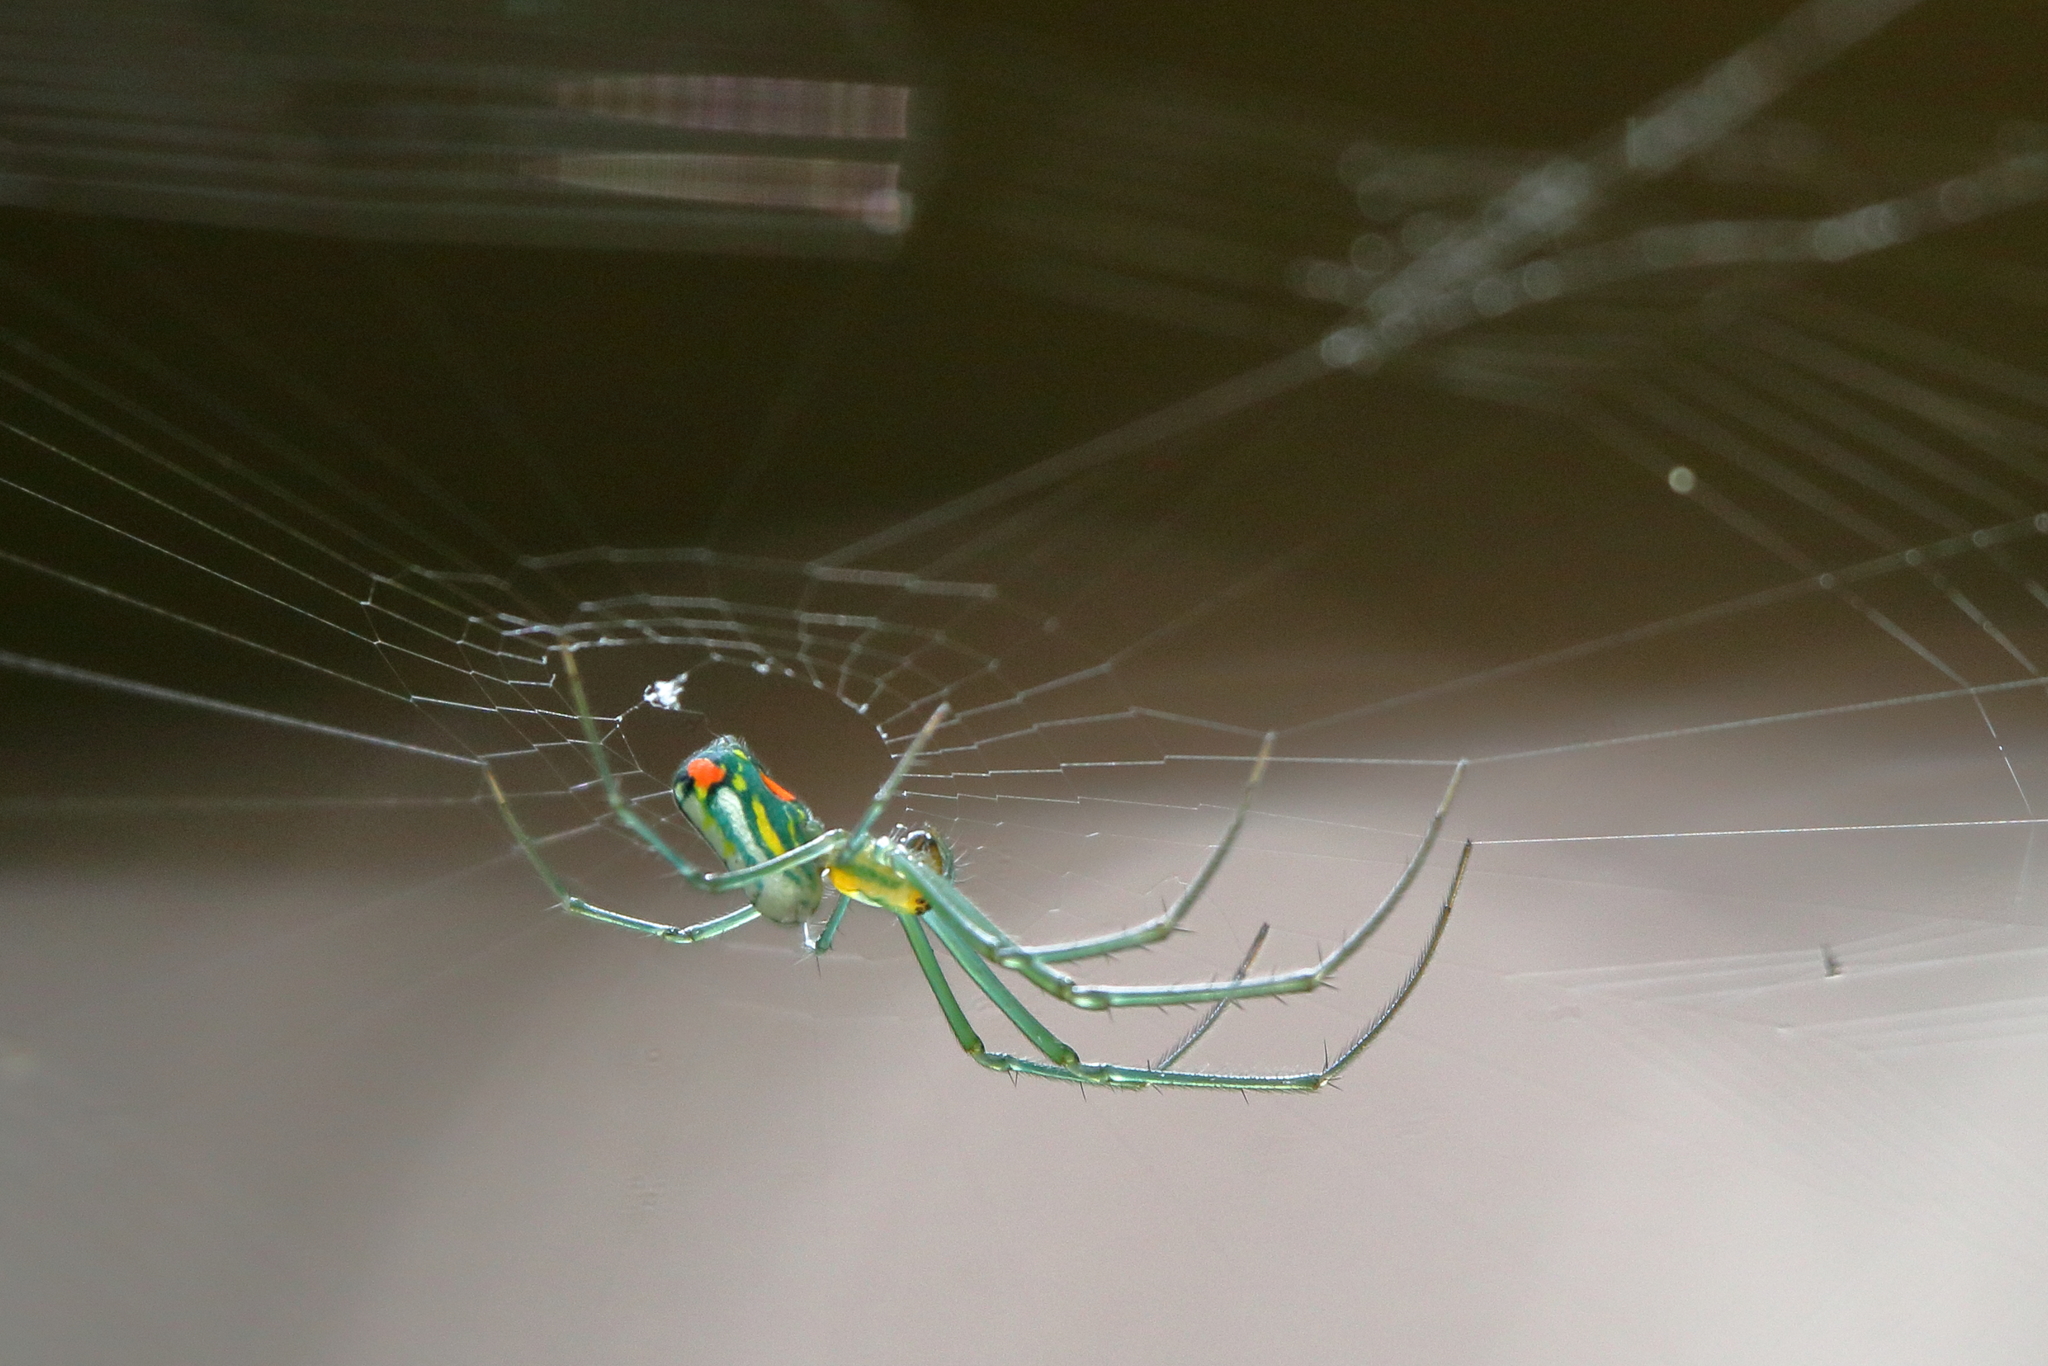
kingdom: Animalia
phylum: Arthropoda
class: Arachnida
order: Araneae
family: Tetragnathidae
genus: Leucauge
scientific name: Leucauge argyrobapta
